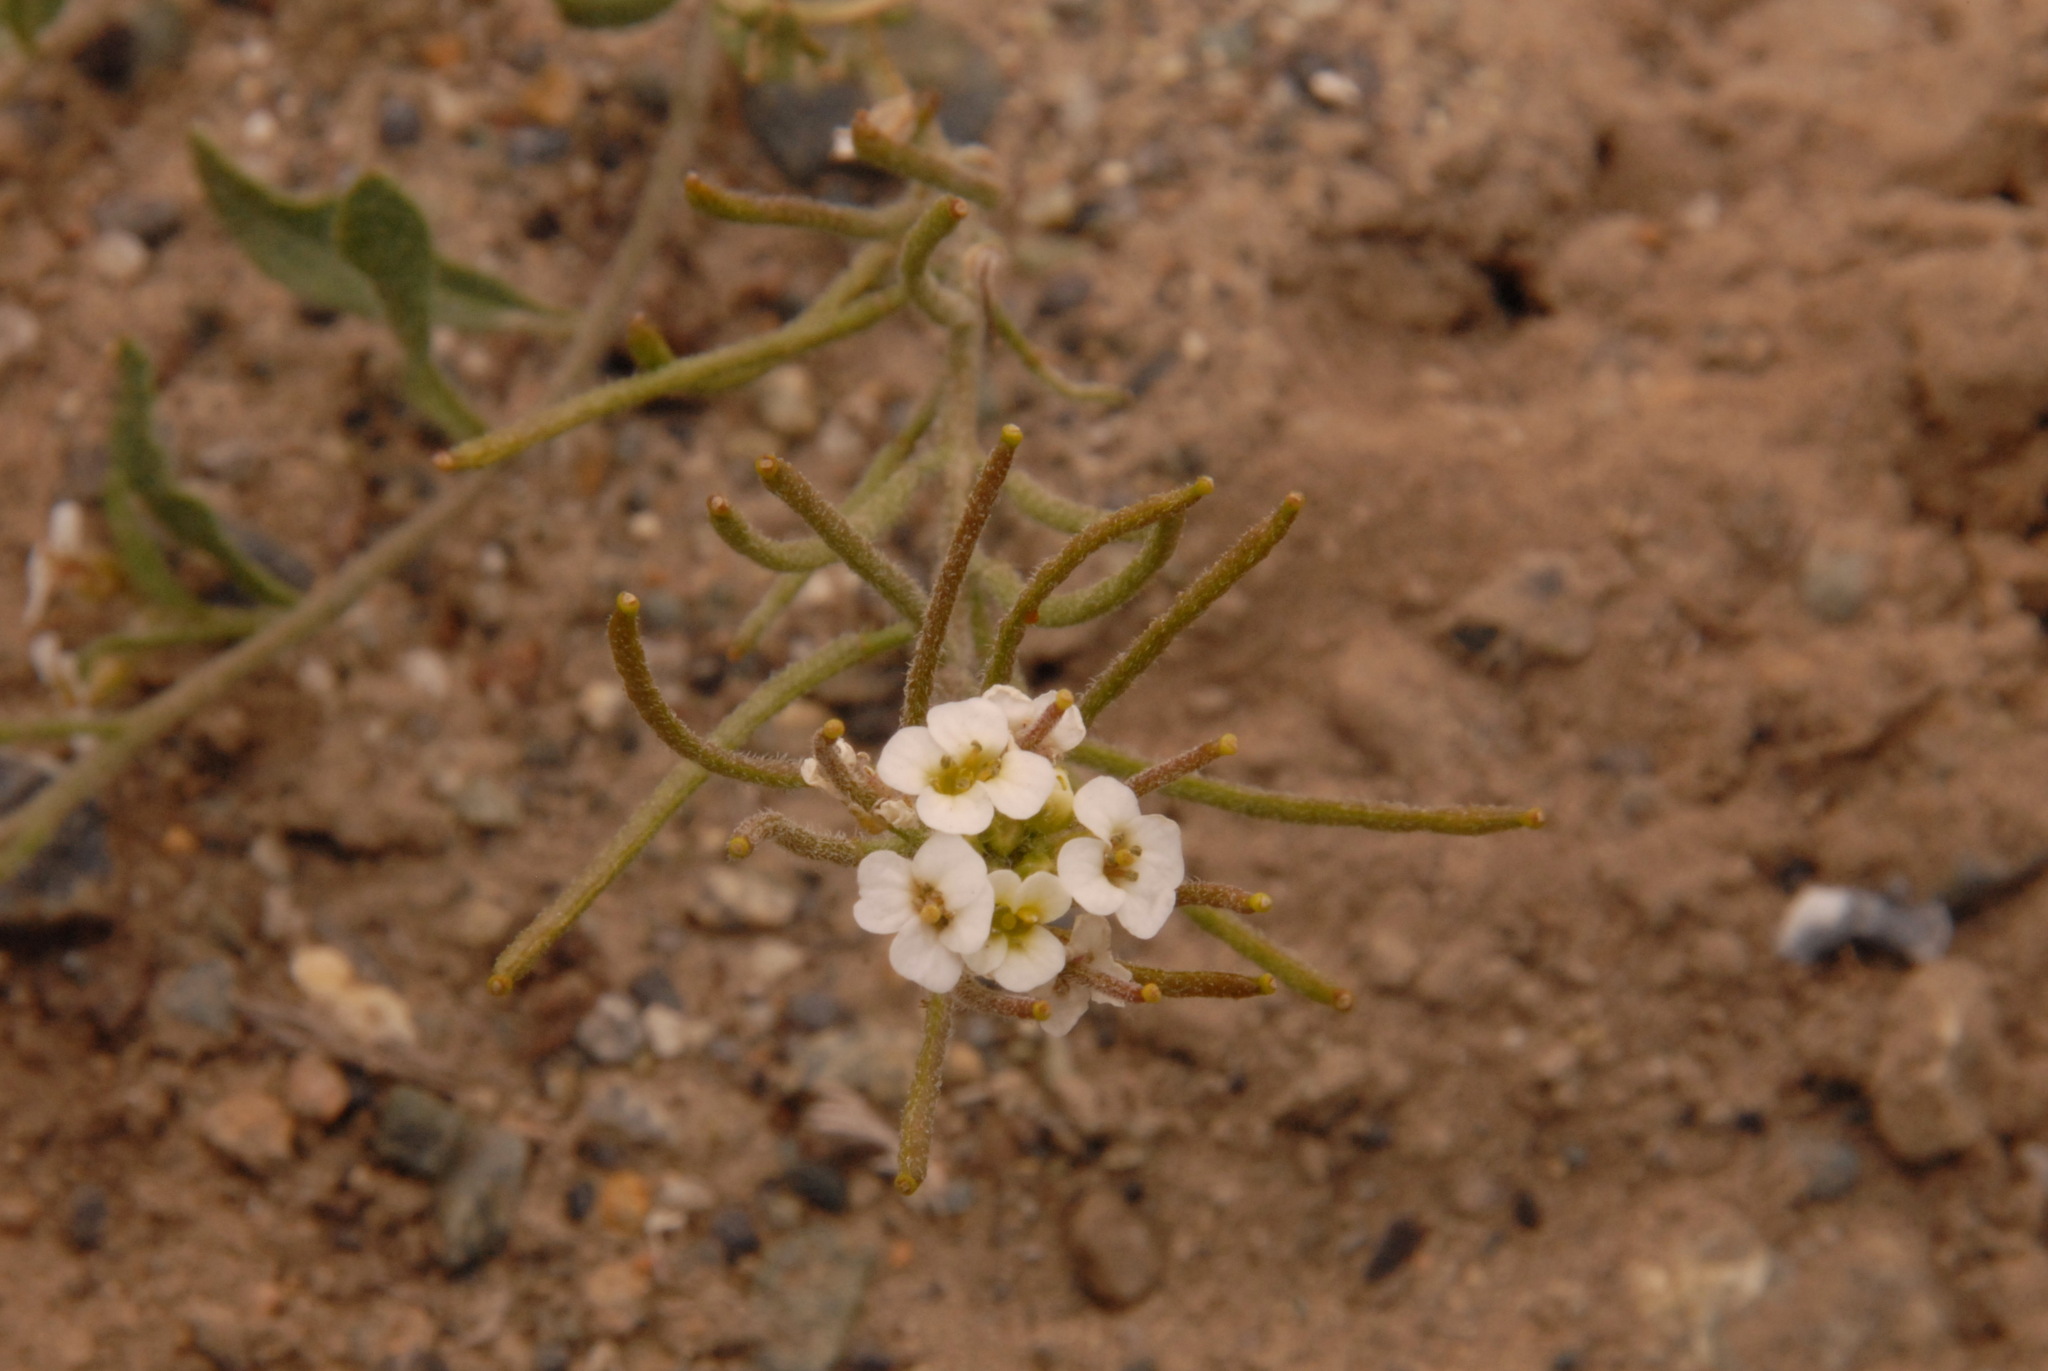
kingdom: Plantae
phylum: Tracheophyta
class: Magnoliopsida
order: Brassicales
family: Brassicaceae
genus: Braya
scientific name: Braya humilis
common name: Alpine northern rockcress
